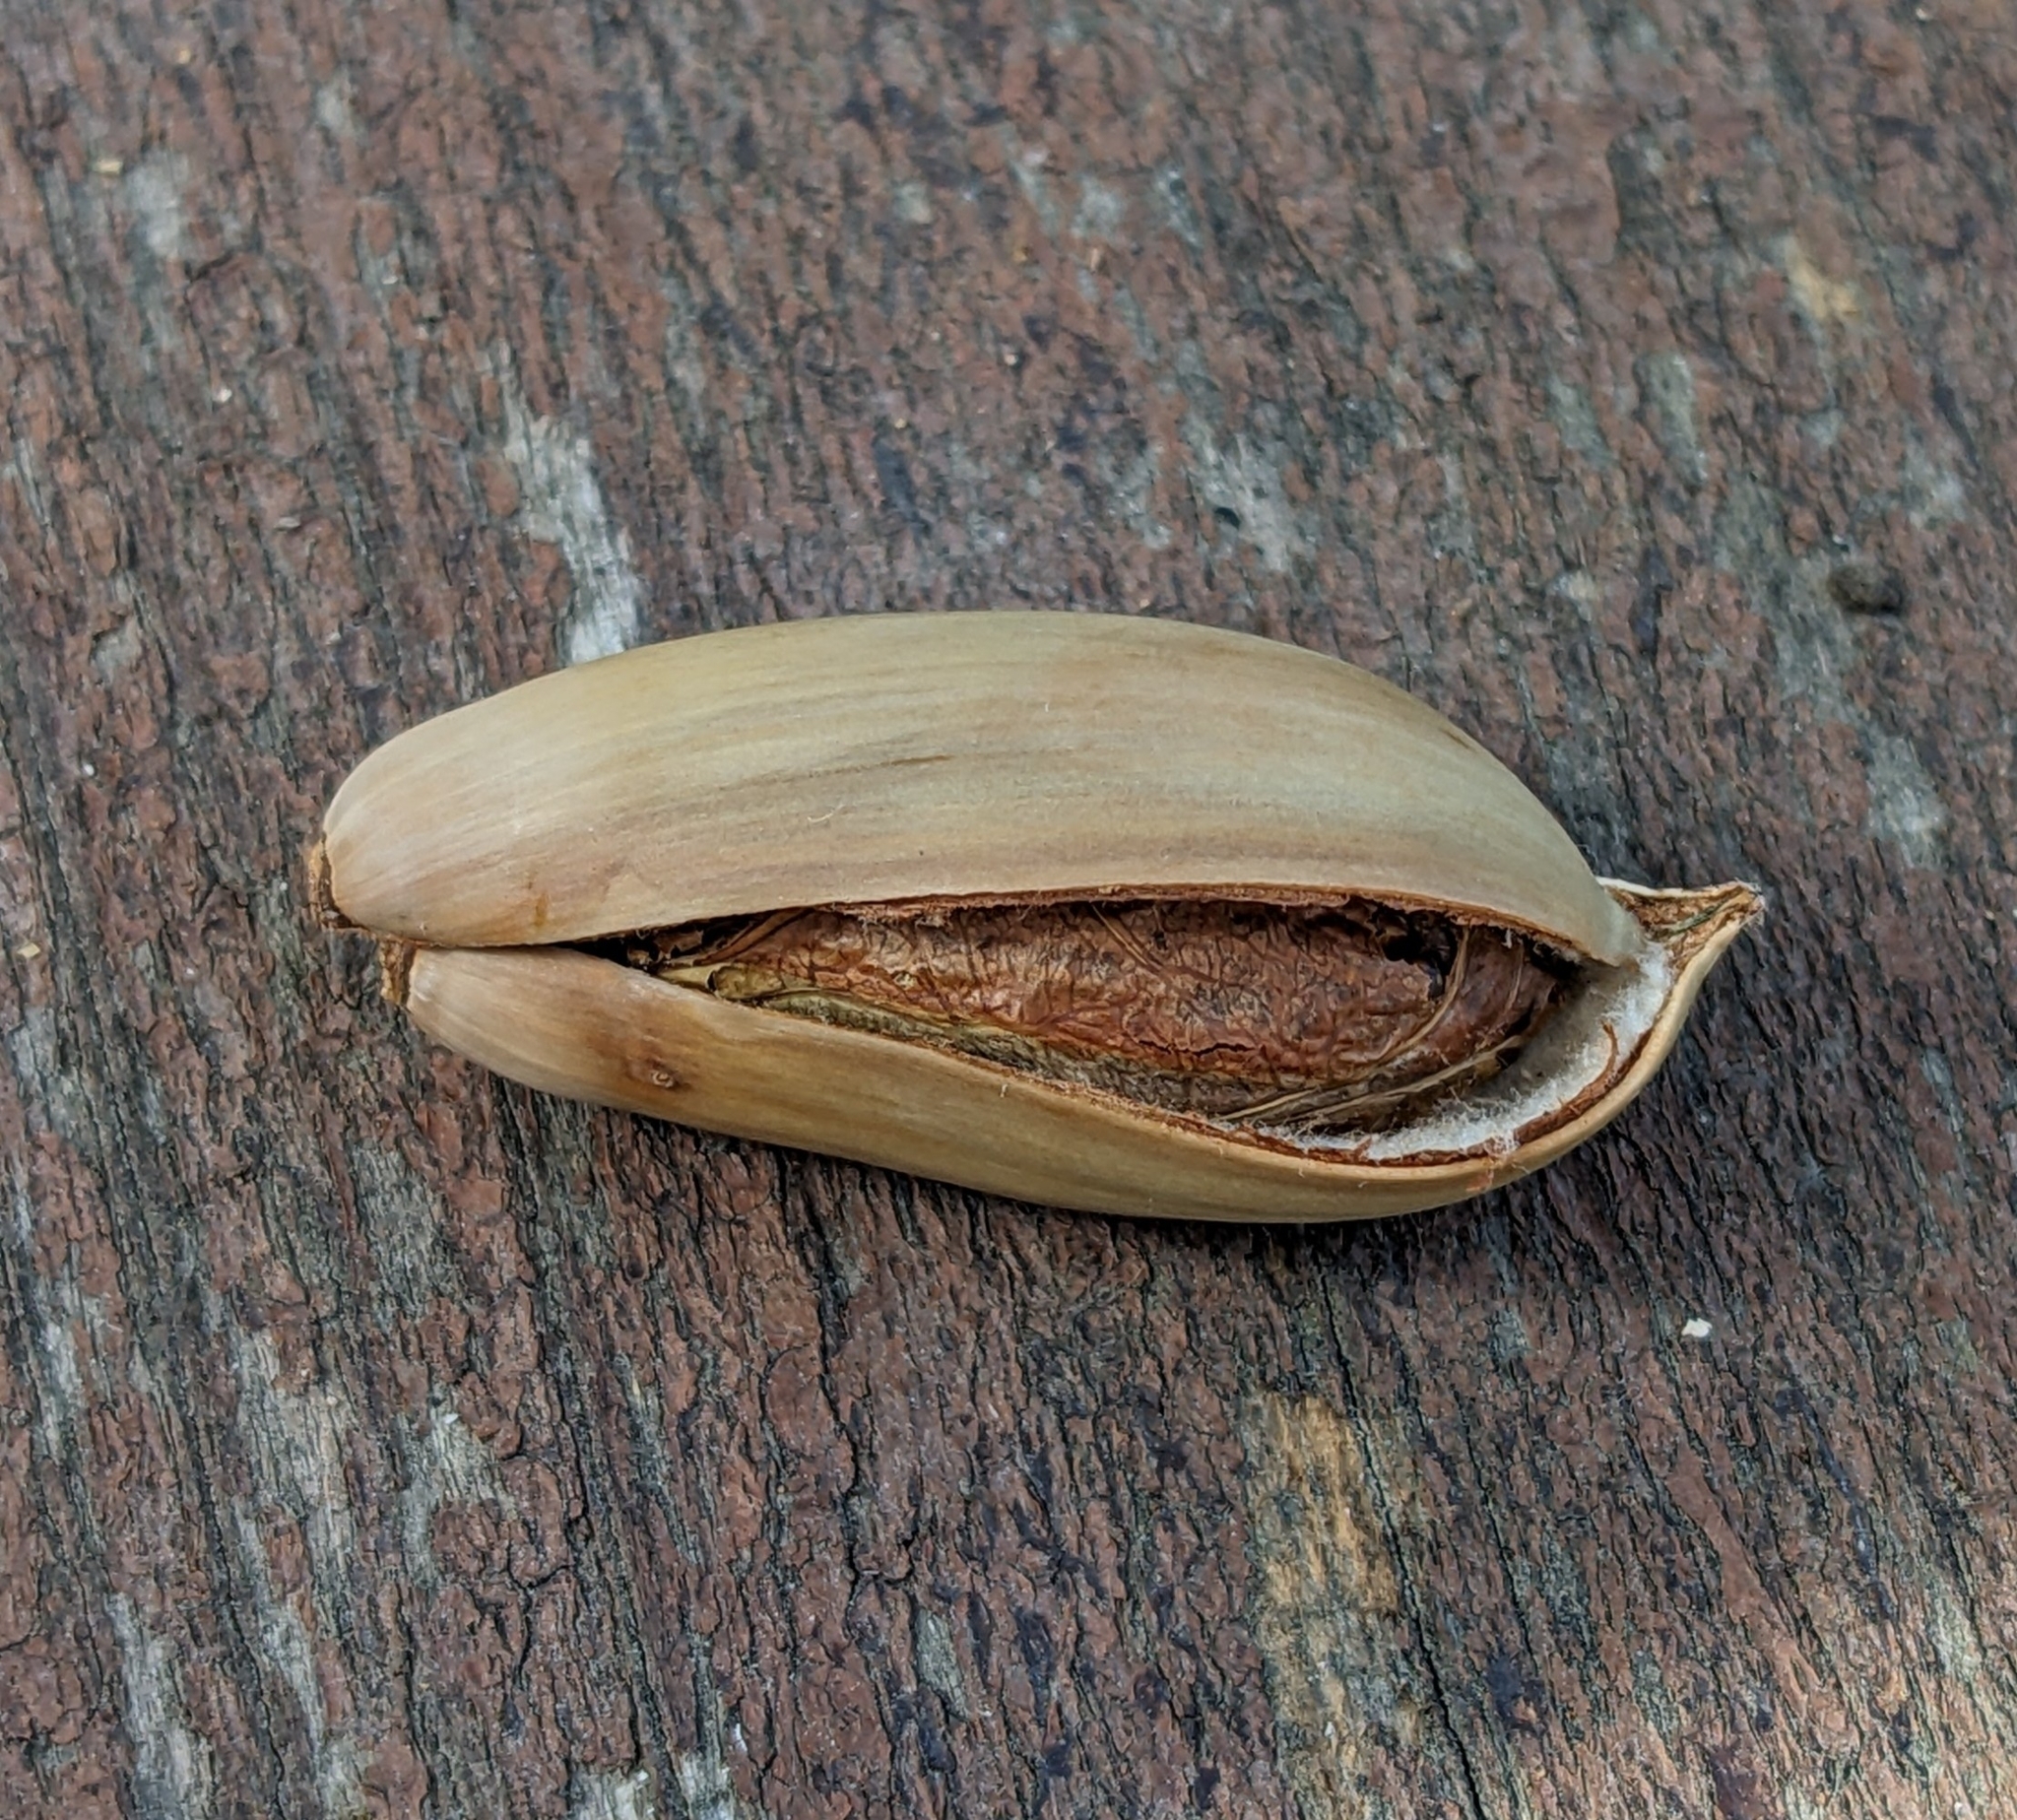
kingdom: Plantae
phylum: Tracheophyta
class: Magnoliopsida
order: Fagales
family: Fagaceae
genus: Quercus
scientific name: Quercus alnifolia
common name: Golden oak
